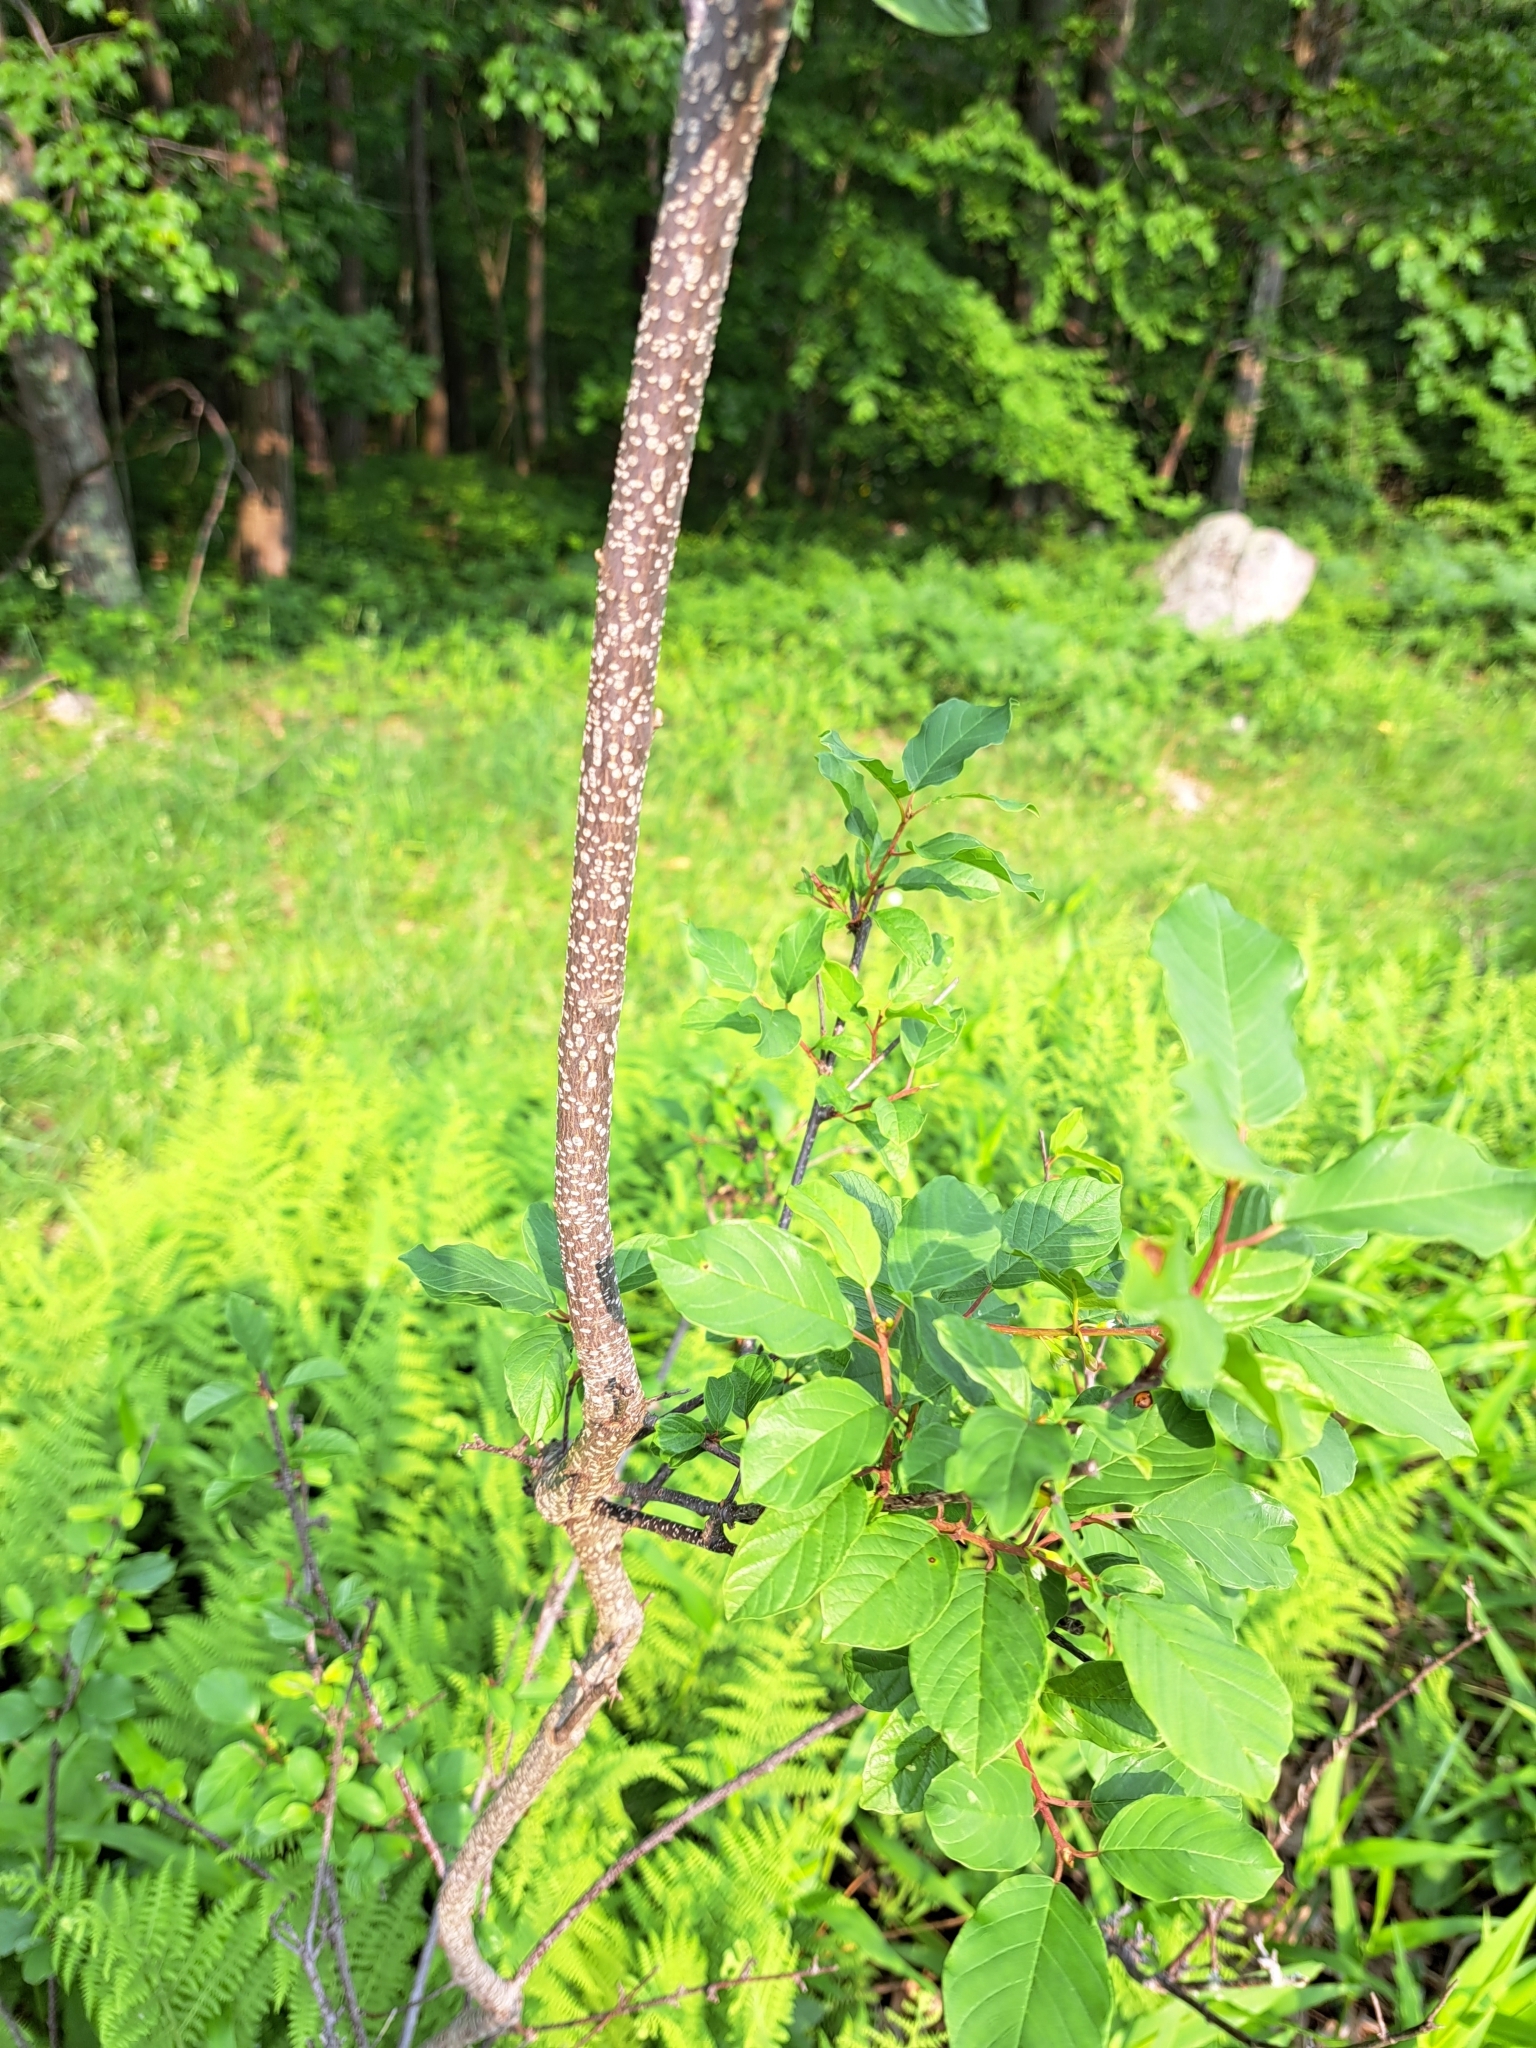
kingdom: Plantae
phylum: Tracheophyta
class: Magnoliopsida
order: Rosales
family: Rhamnaceae
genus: Frangula
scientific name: Frangula alnus
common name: Alder buckthorn
